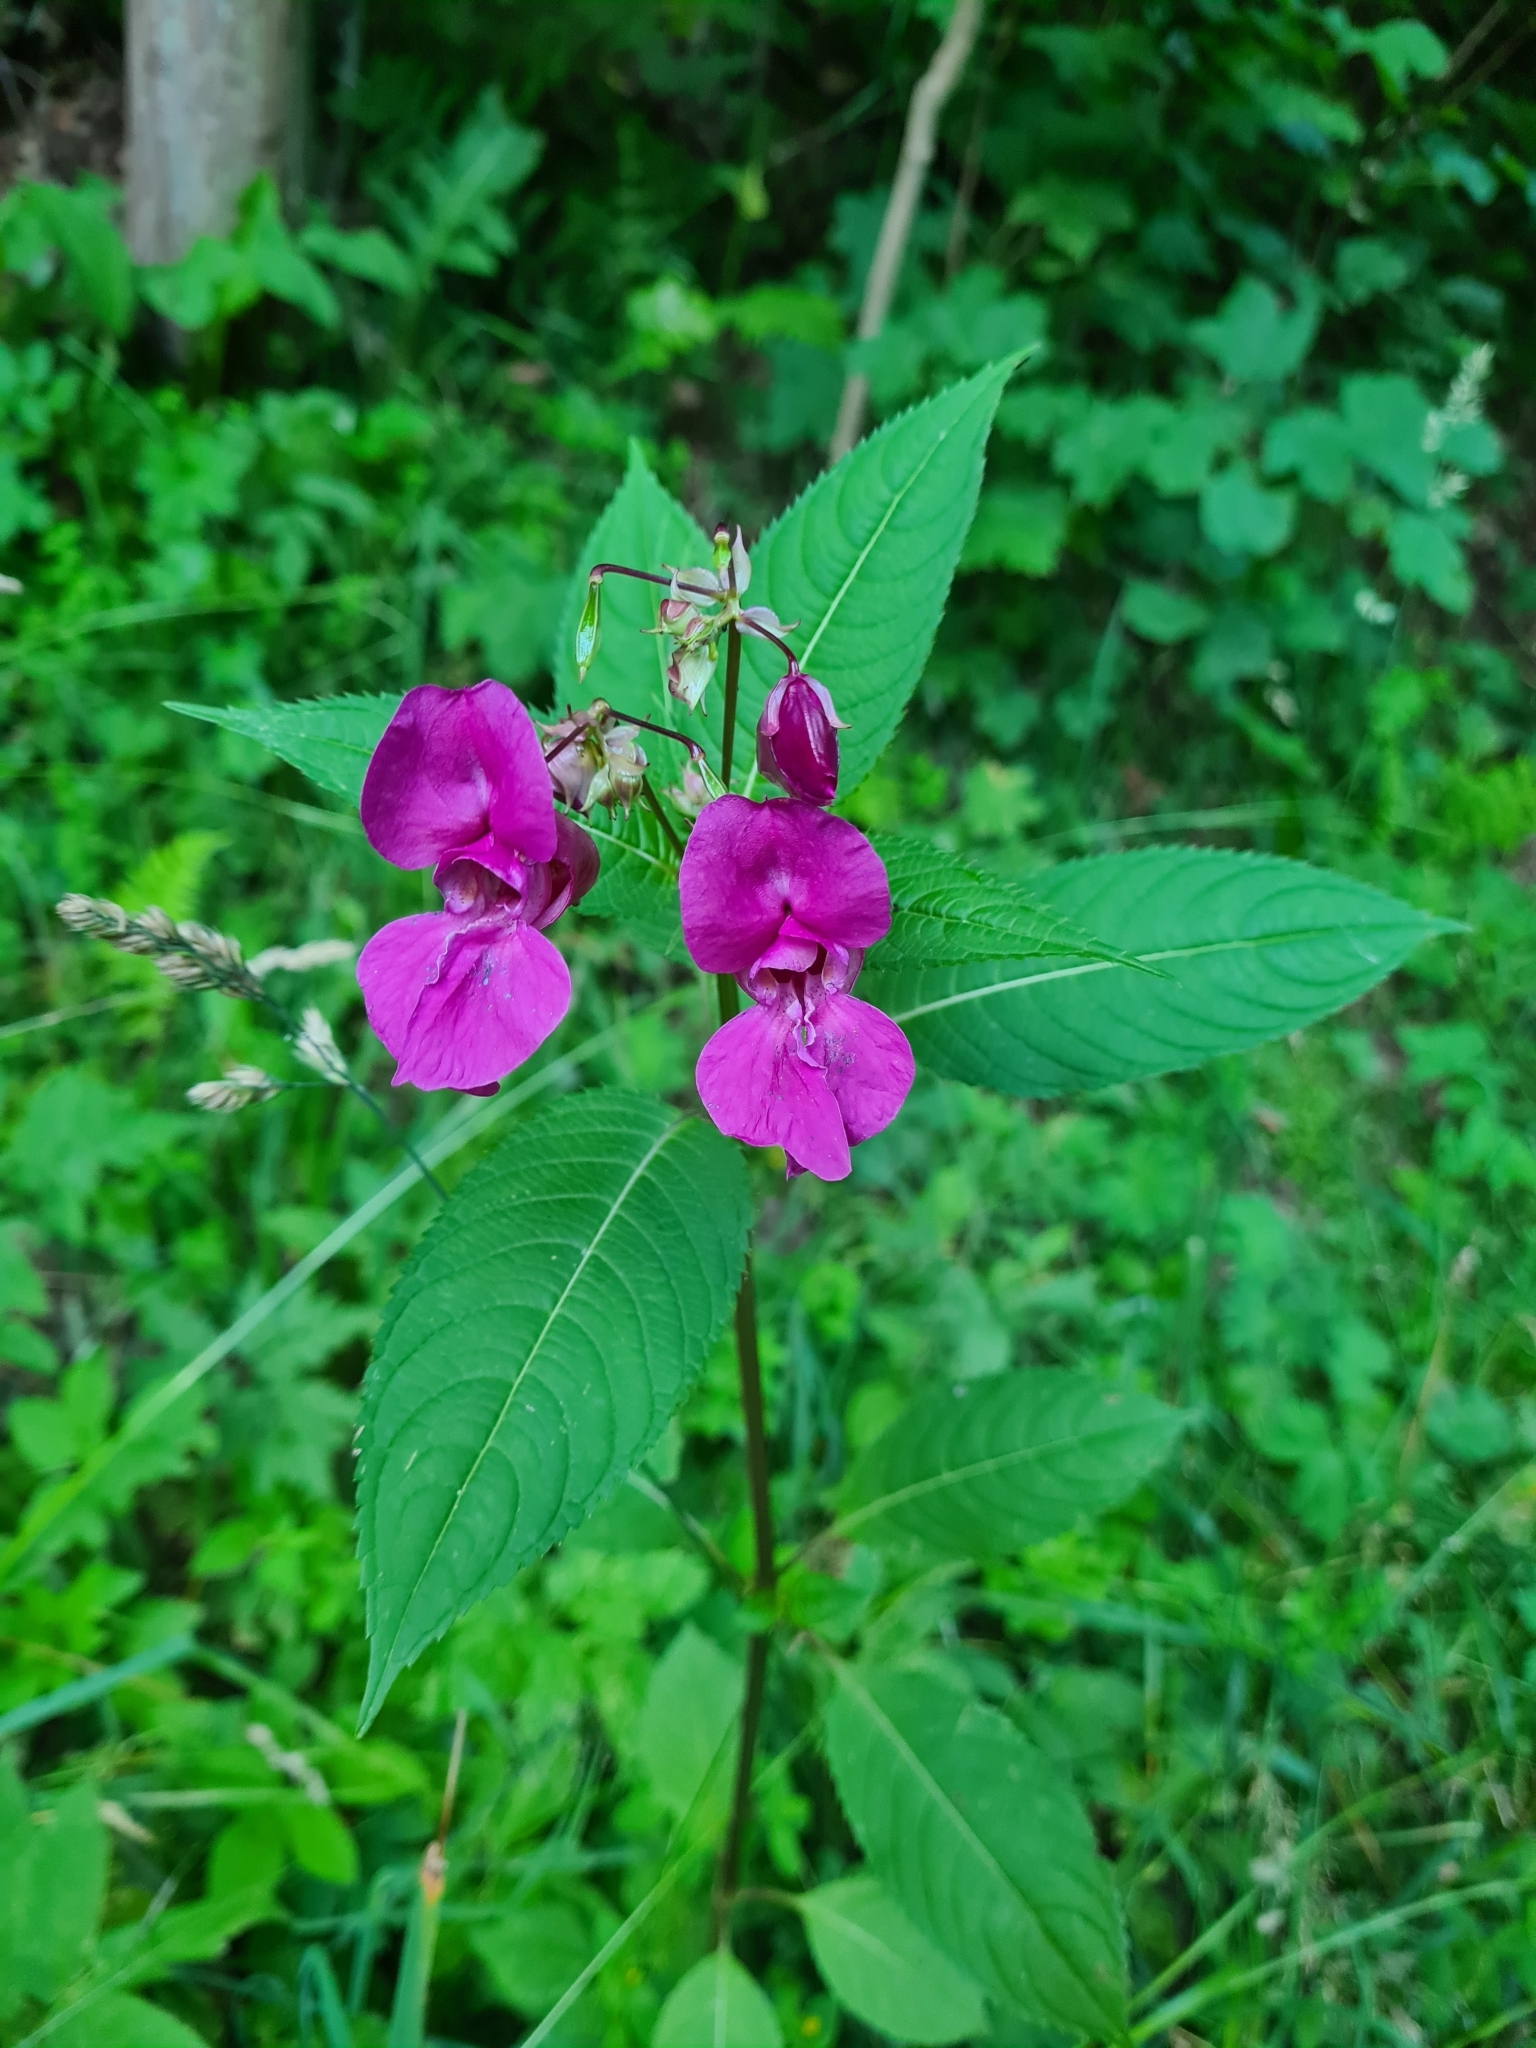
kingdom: Plantae
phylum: Tracheophyta
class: Magnoliopsida
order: Ericales
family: Balsaminaceae
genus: Impatiens
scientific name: Impatiens glandulifera
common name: Himalayan balsam
